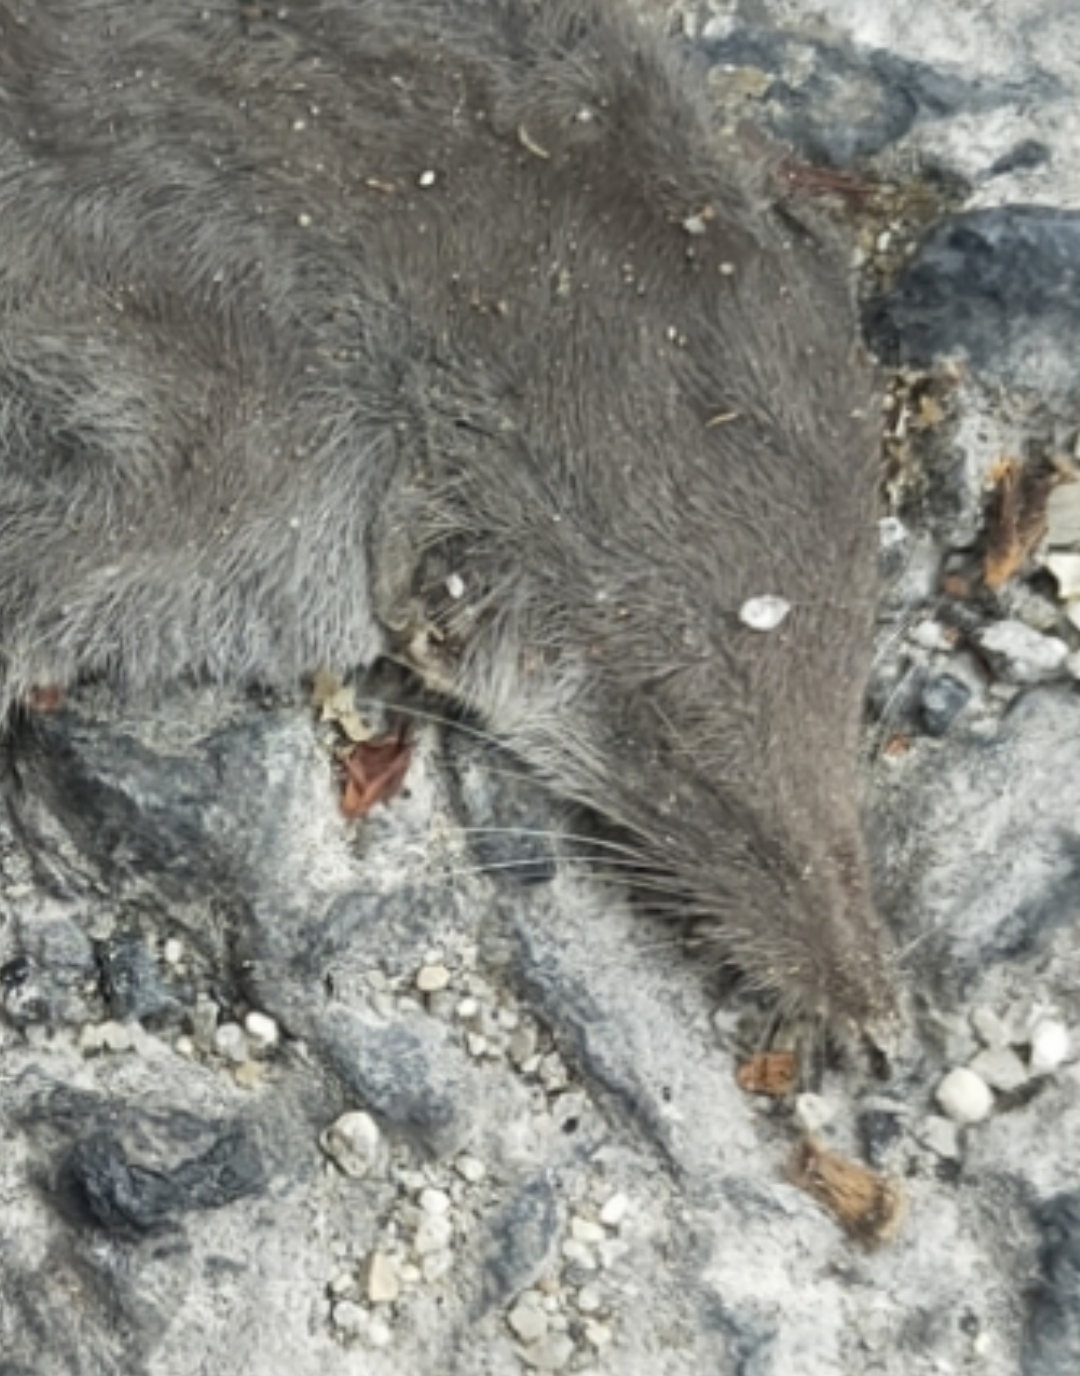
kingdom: Animalia
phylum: Chordata
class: Mammalia
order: Soricomorpha
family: Soricidae
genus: Crocidura
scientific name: Crocidura suaveolens
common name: Lesser white-toothed shrew
